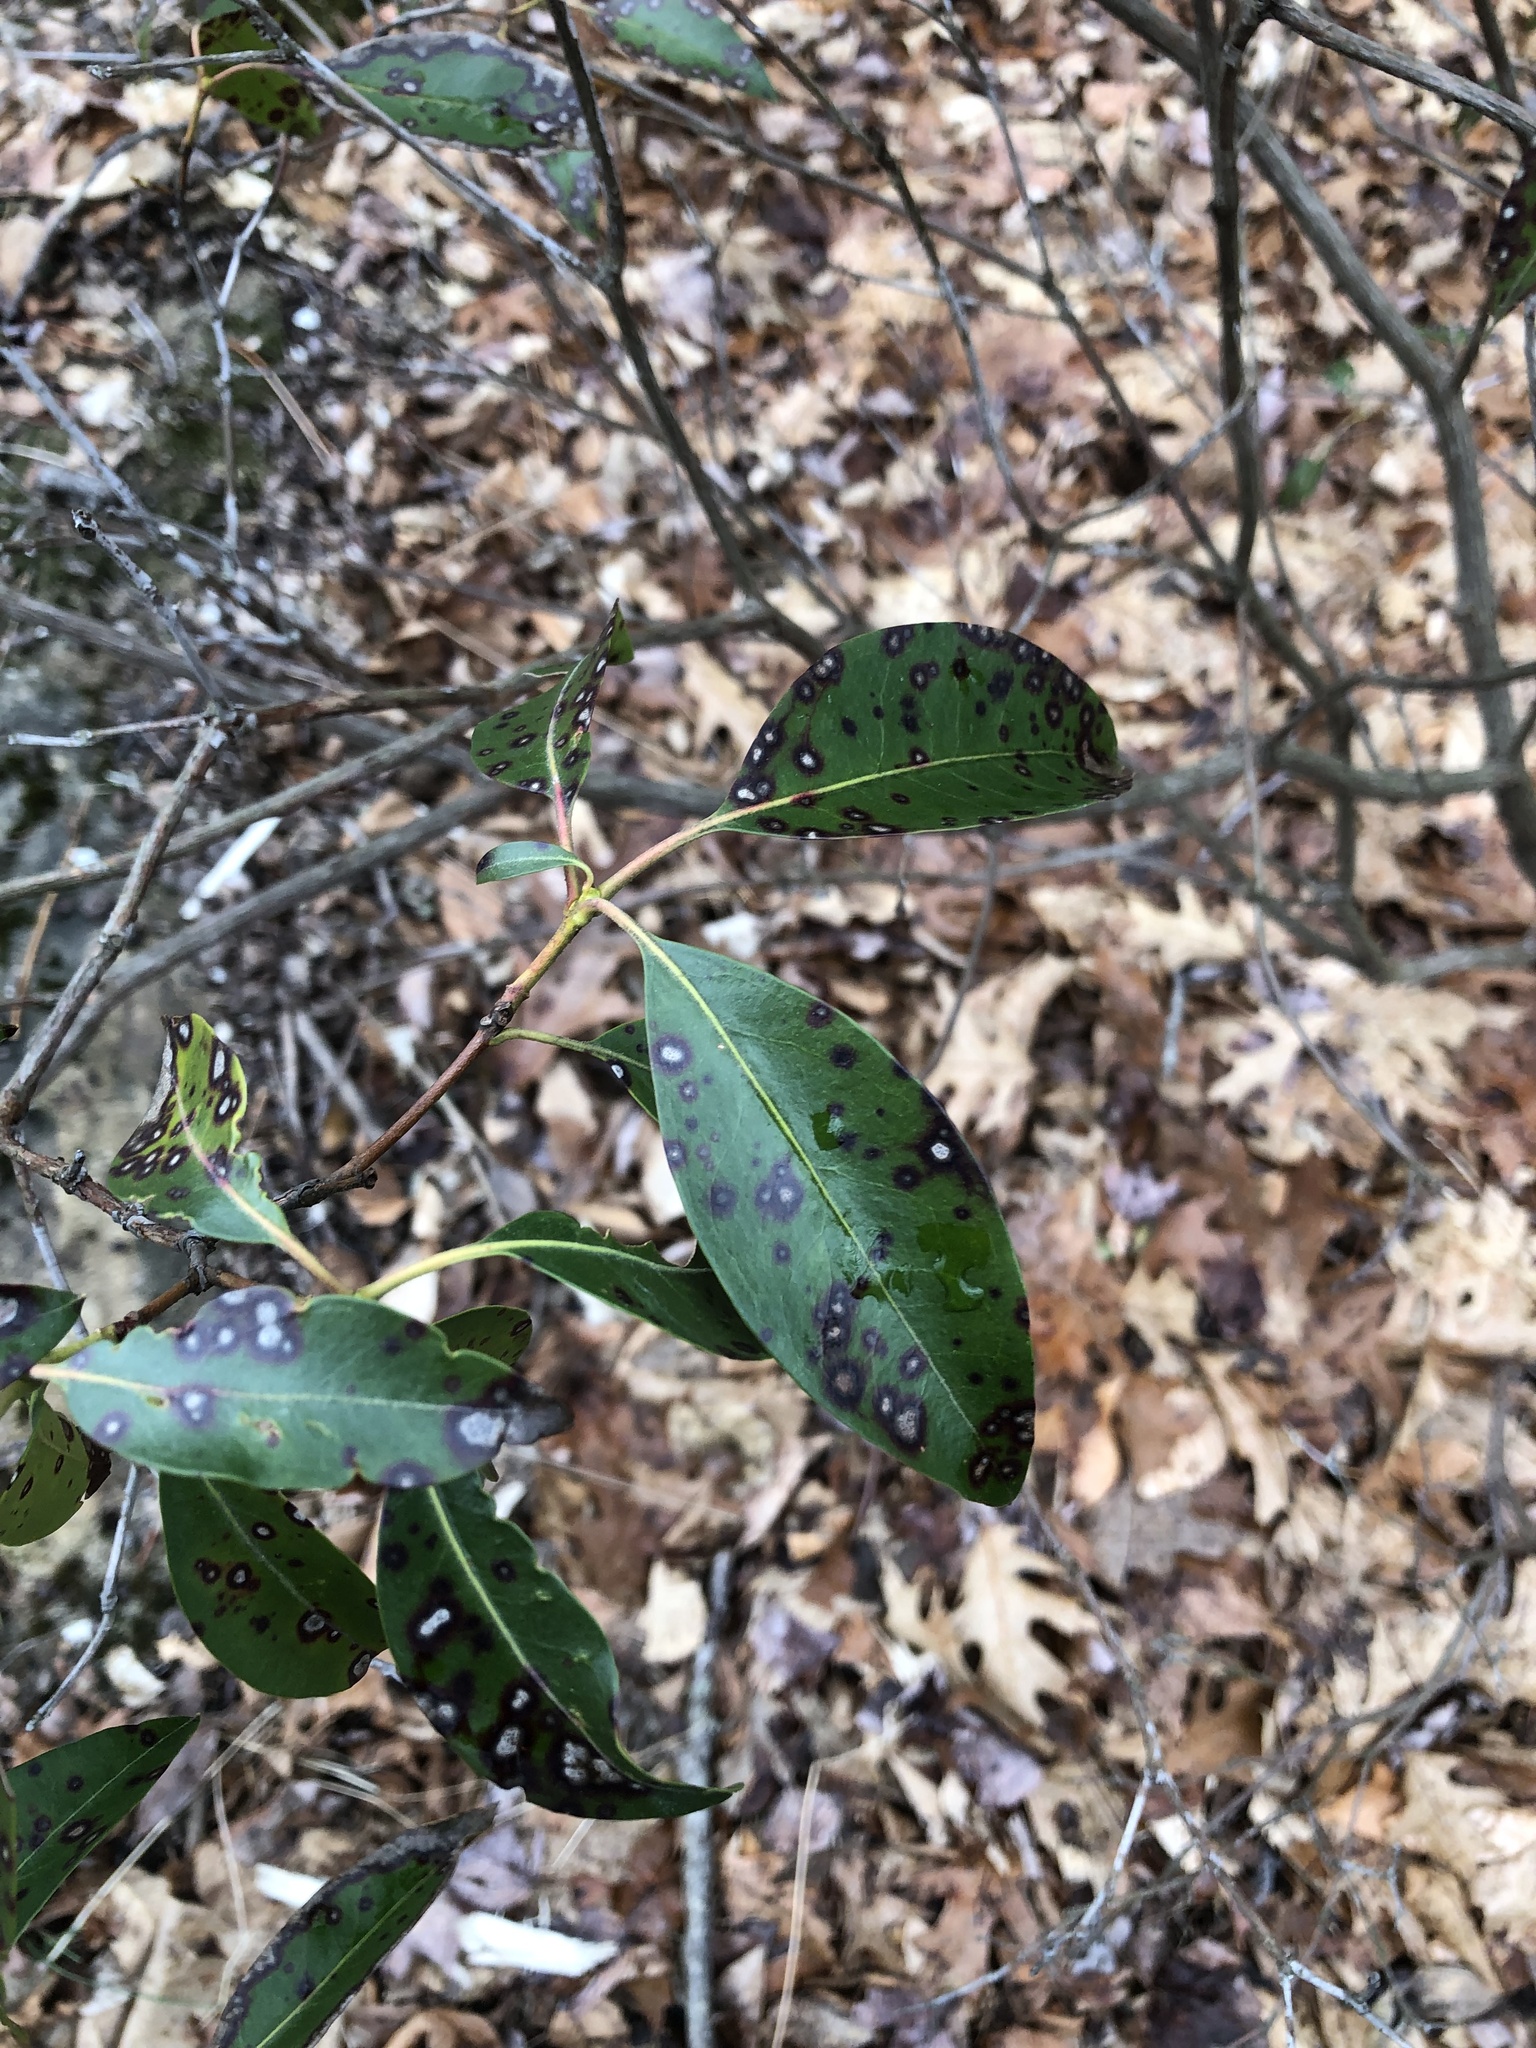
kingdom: Plantae
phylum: Tracheophyta
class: Magnoliopsida
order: Ericales
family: Ericaceae
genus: Kalmia
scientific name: Kalmia latifolia
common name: Mountain-laurel
